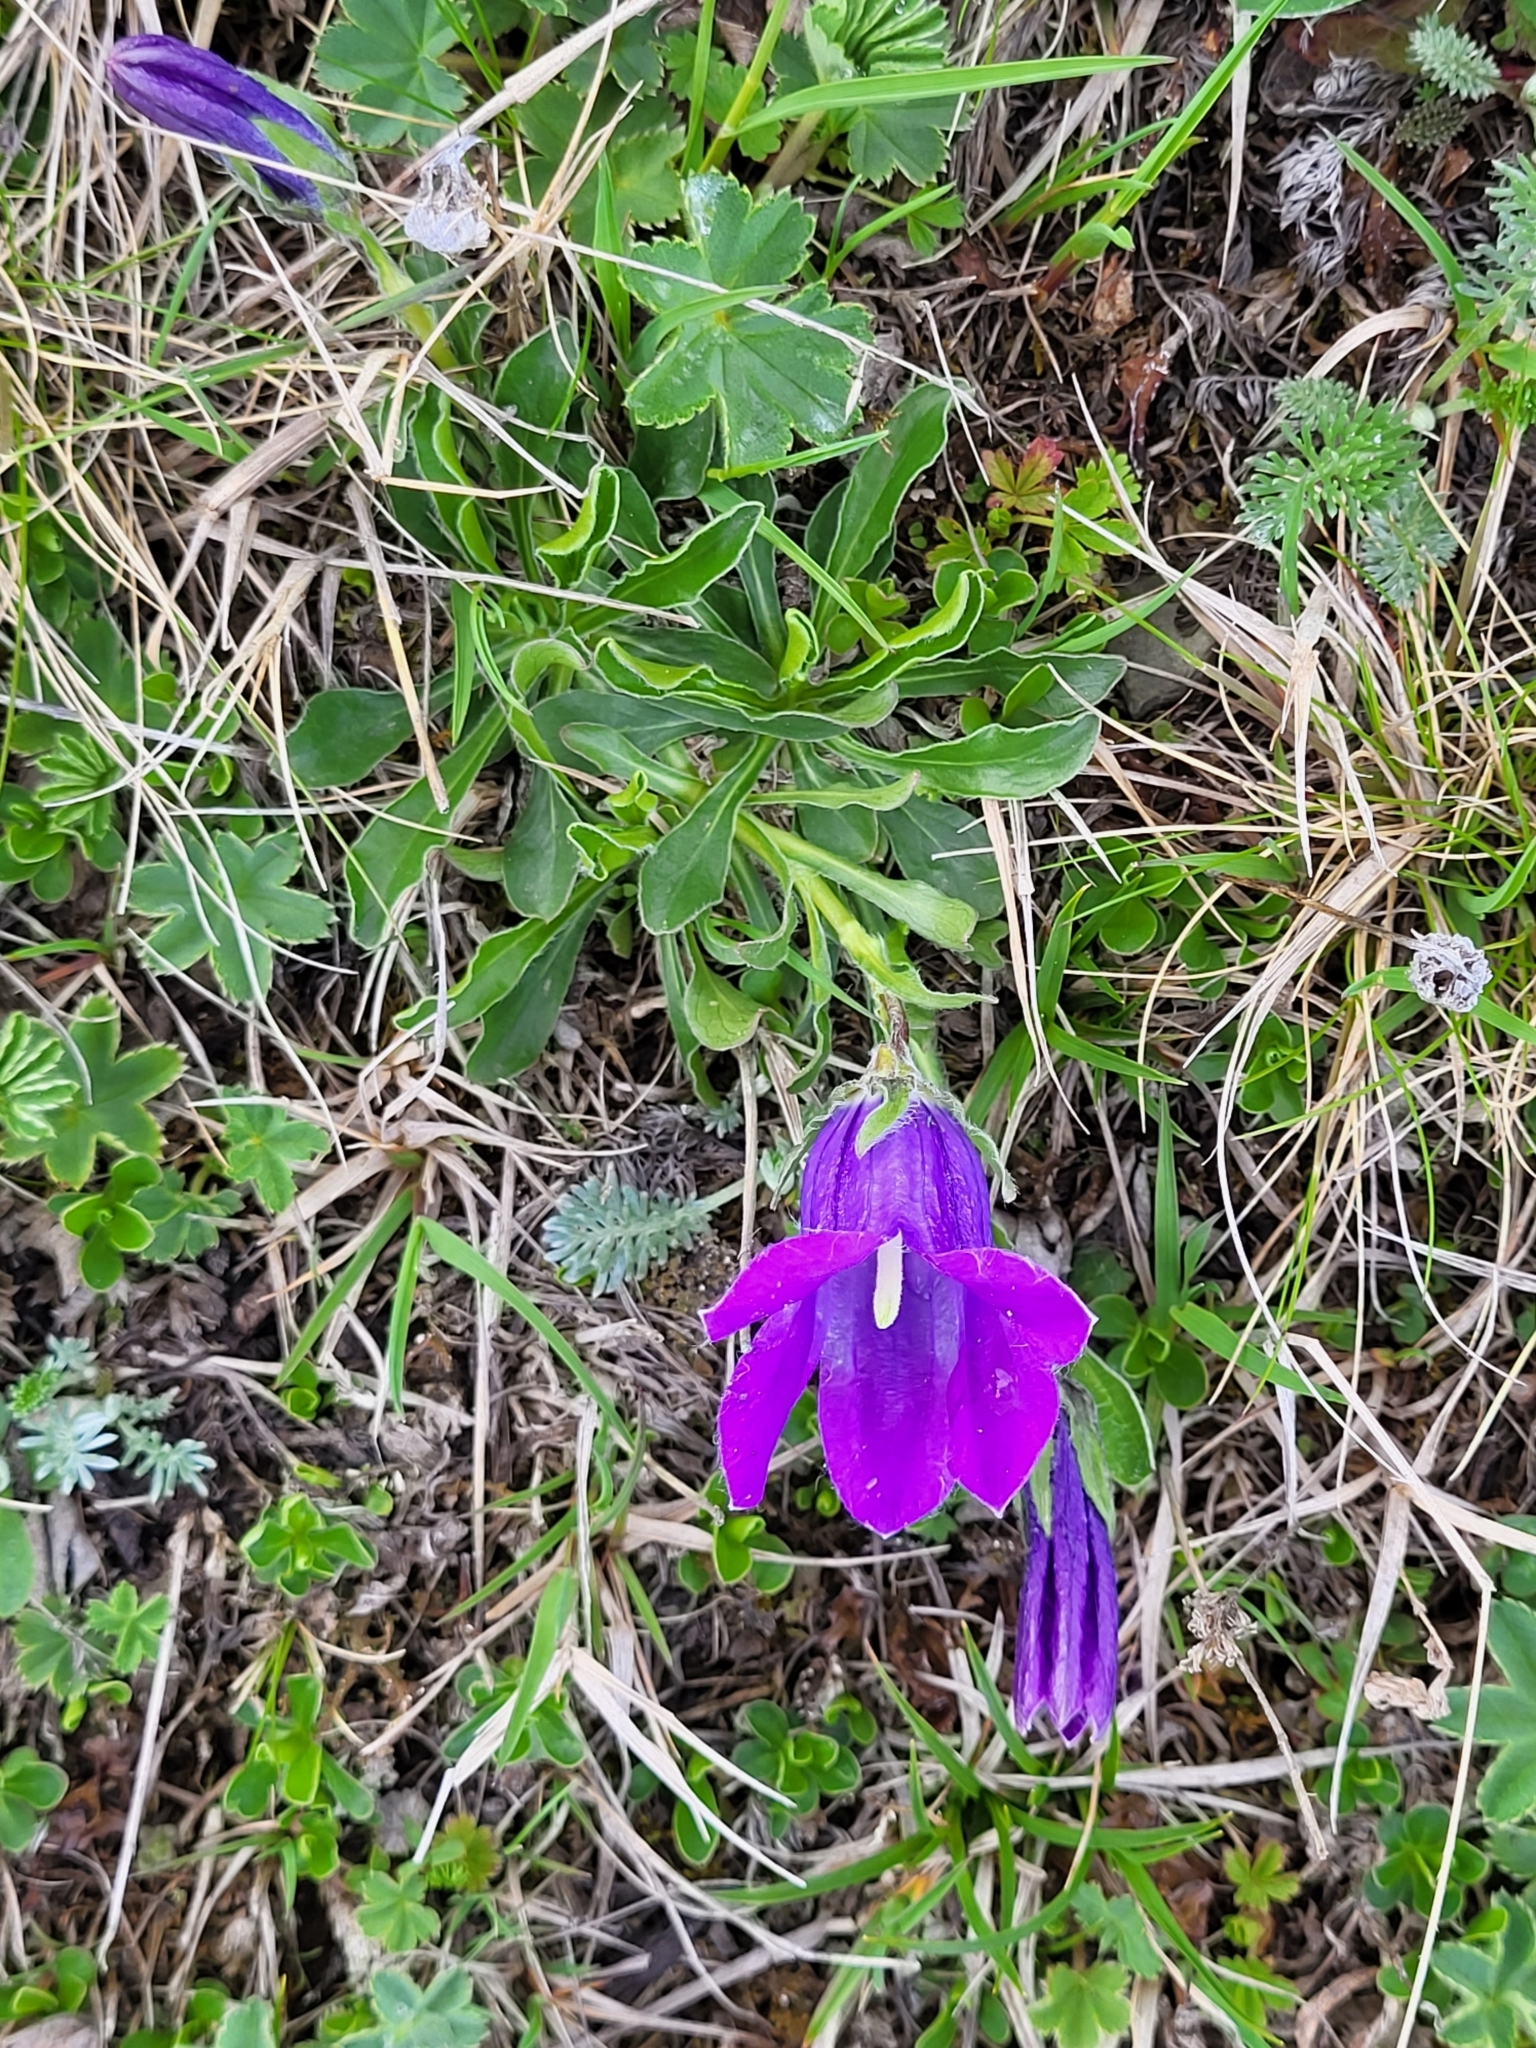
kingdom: Plantae
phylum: Tracheophyta
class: Magnoliopsida
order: Asterales
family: Campanulaceae
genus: Campanula
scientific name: Campanula tridentata
